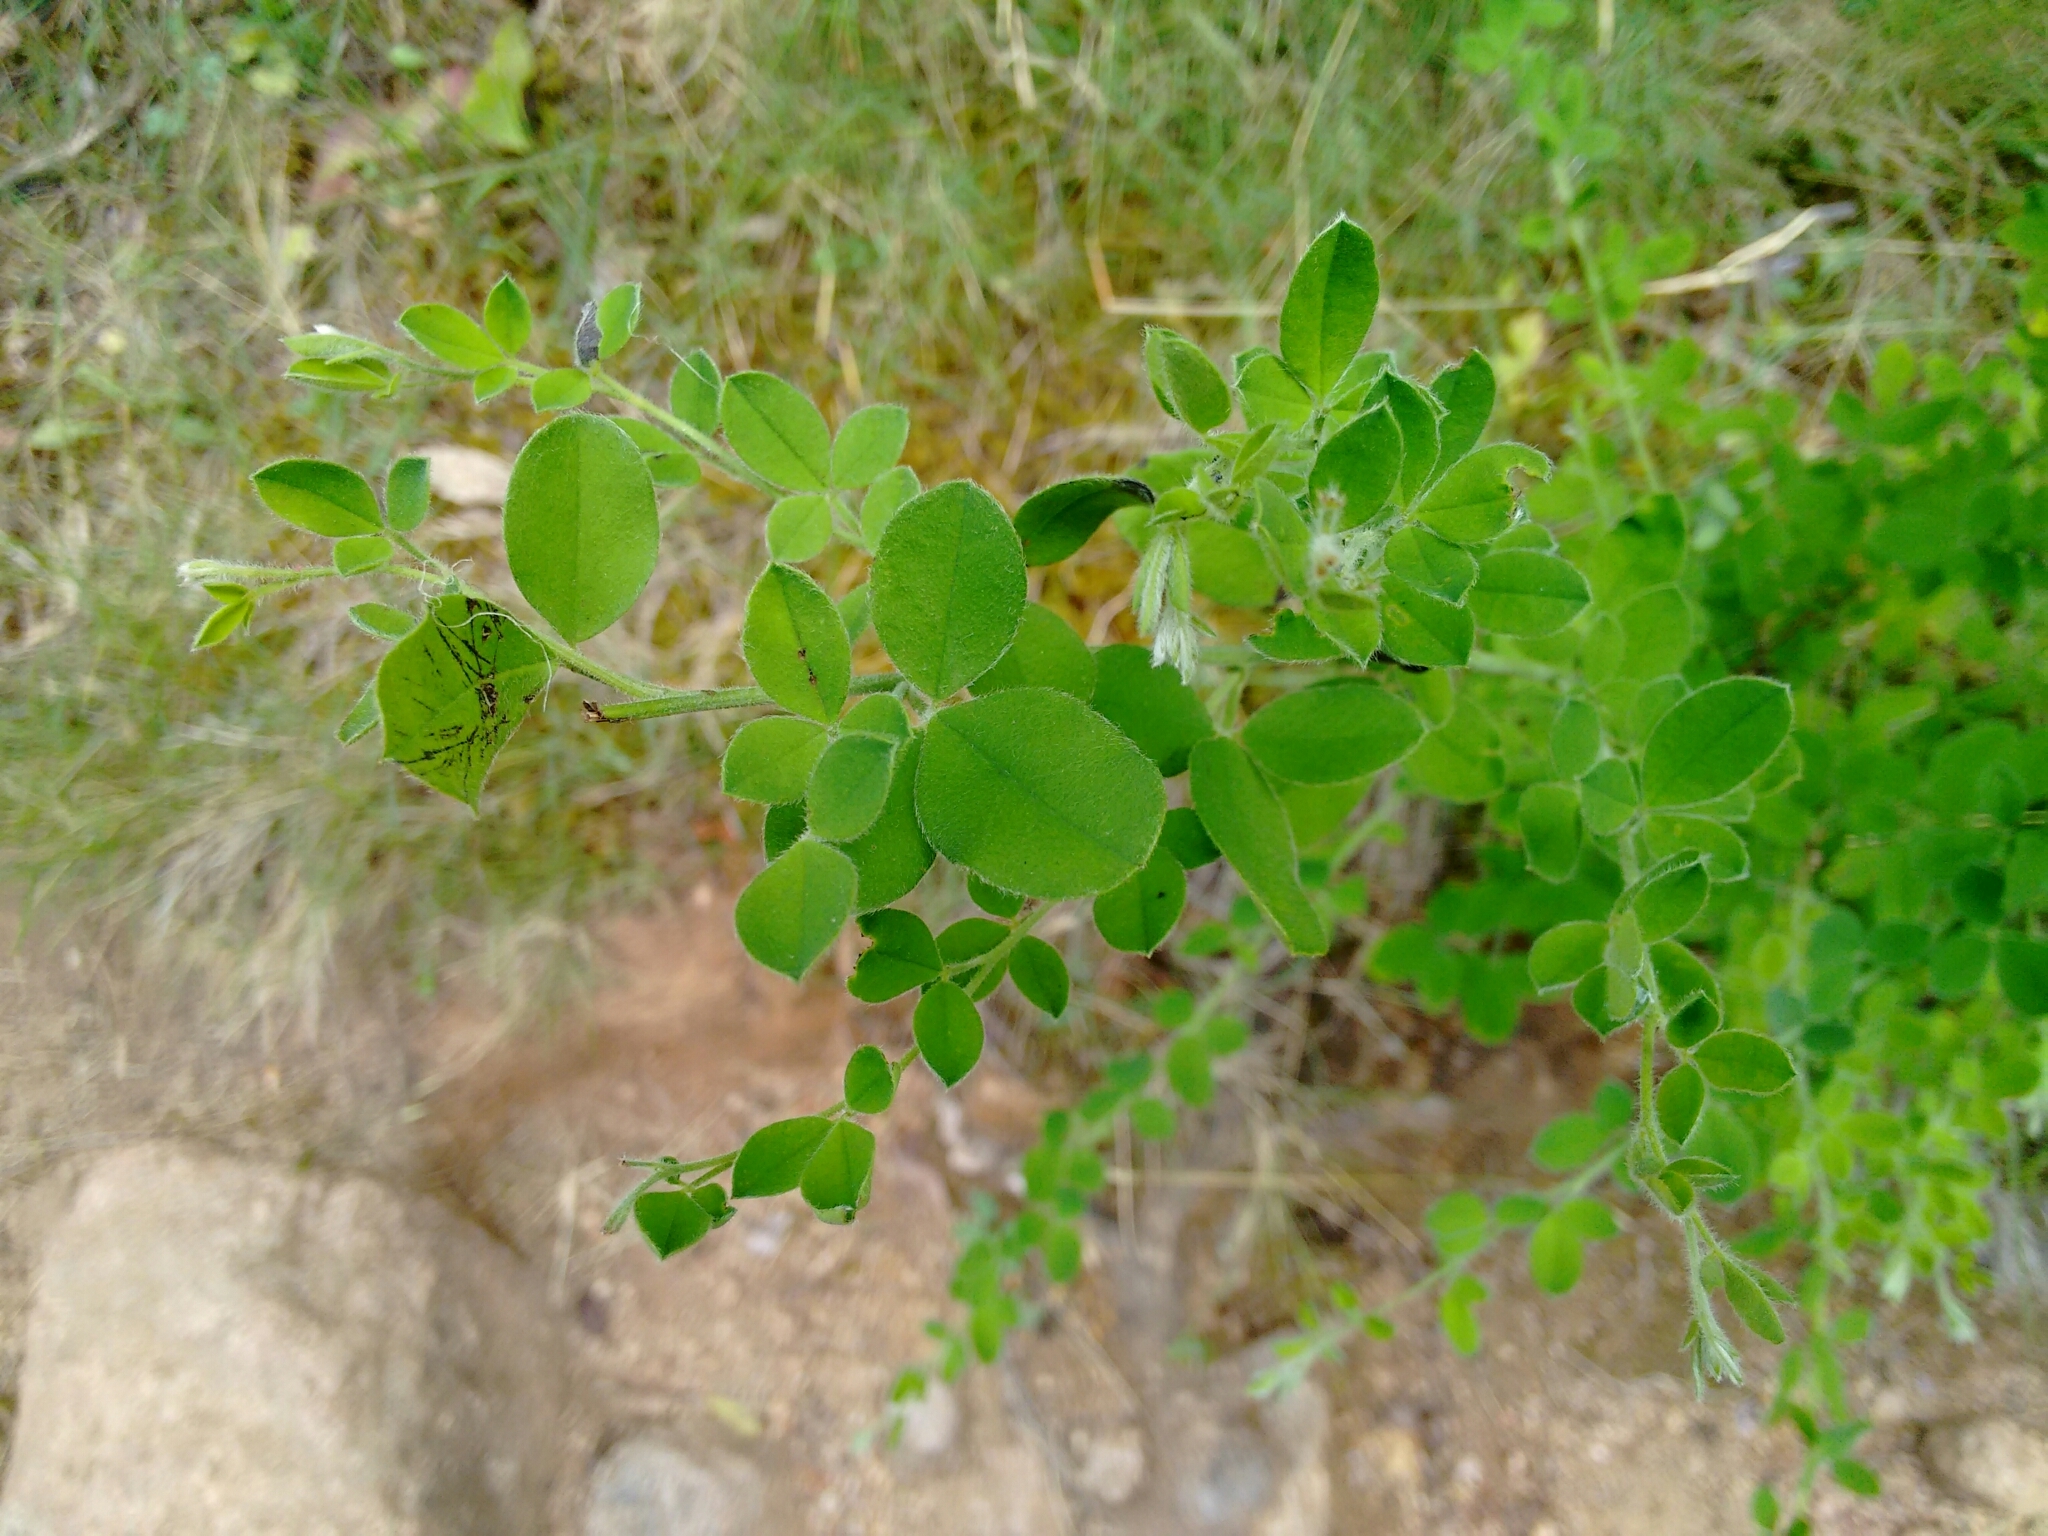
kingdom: Plantae
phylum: Tracheophyta
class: Magnoliopsida
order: Fabales
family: Fabaceae
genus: Cytisus
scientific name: Cytisus villosus
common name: Hairybroom
